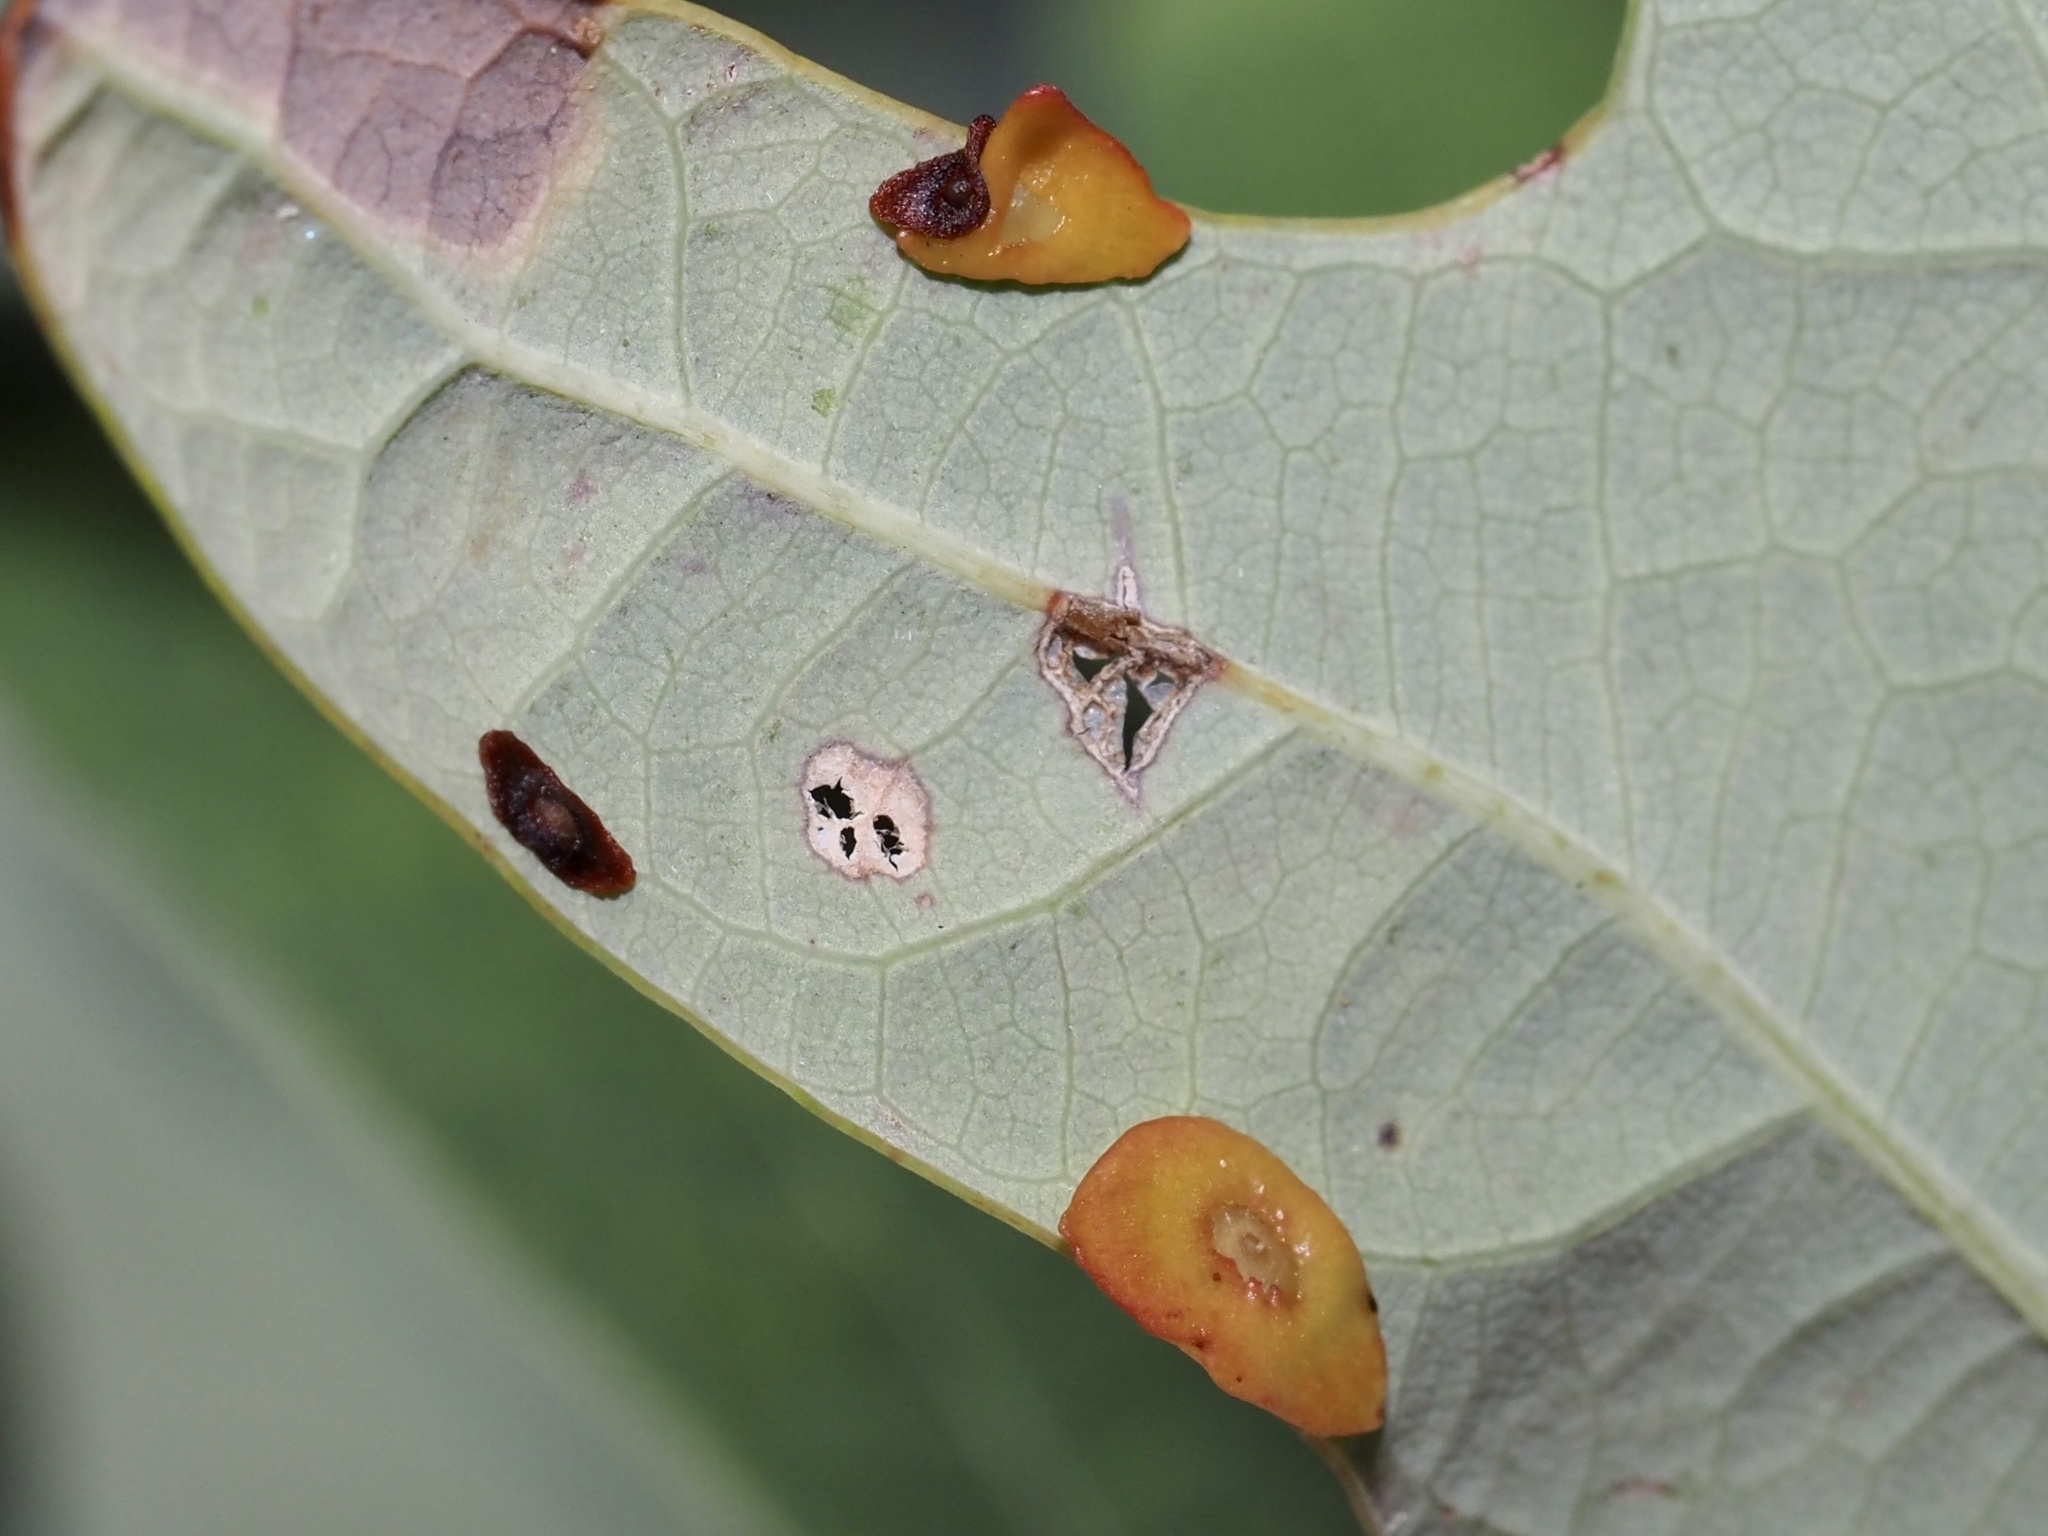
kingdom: Animalia
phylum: Arthropoda
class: Insecta
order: Hymenoptera
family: Cynipidae
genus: Phylloteras
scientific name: Phylloteras
